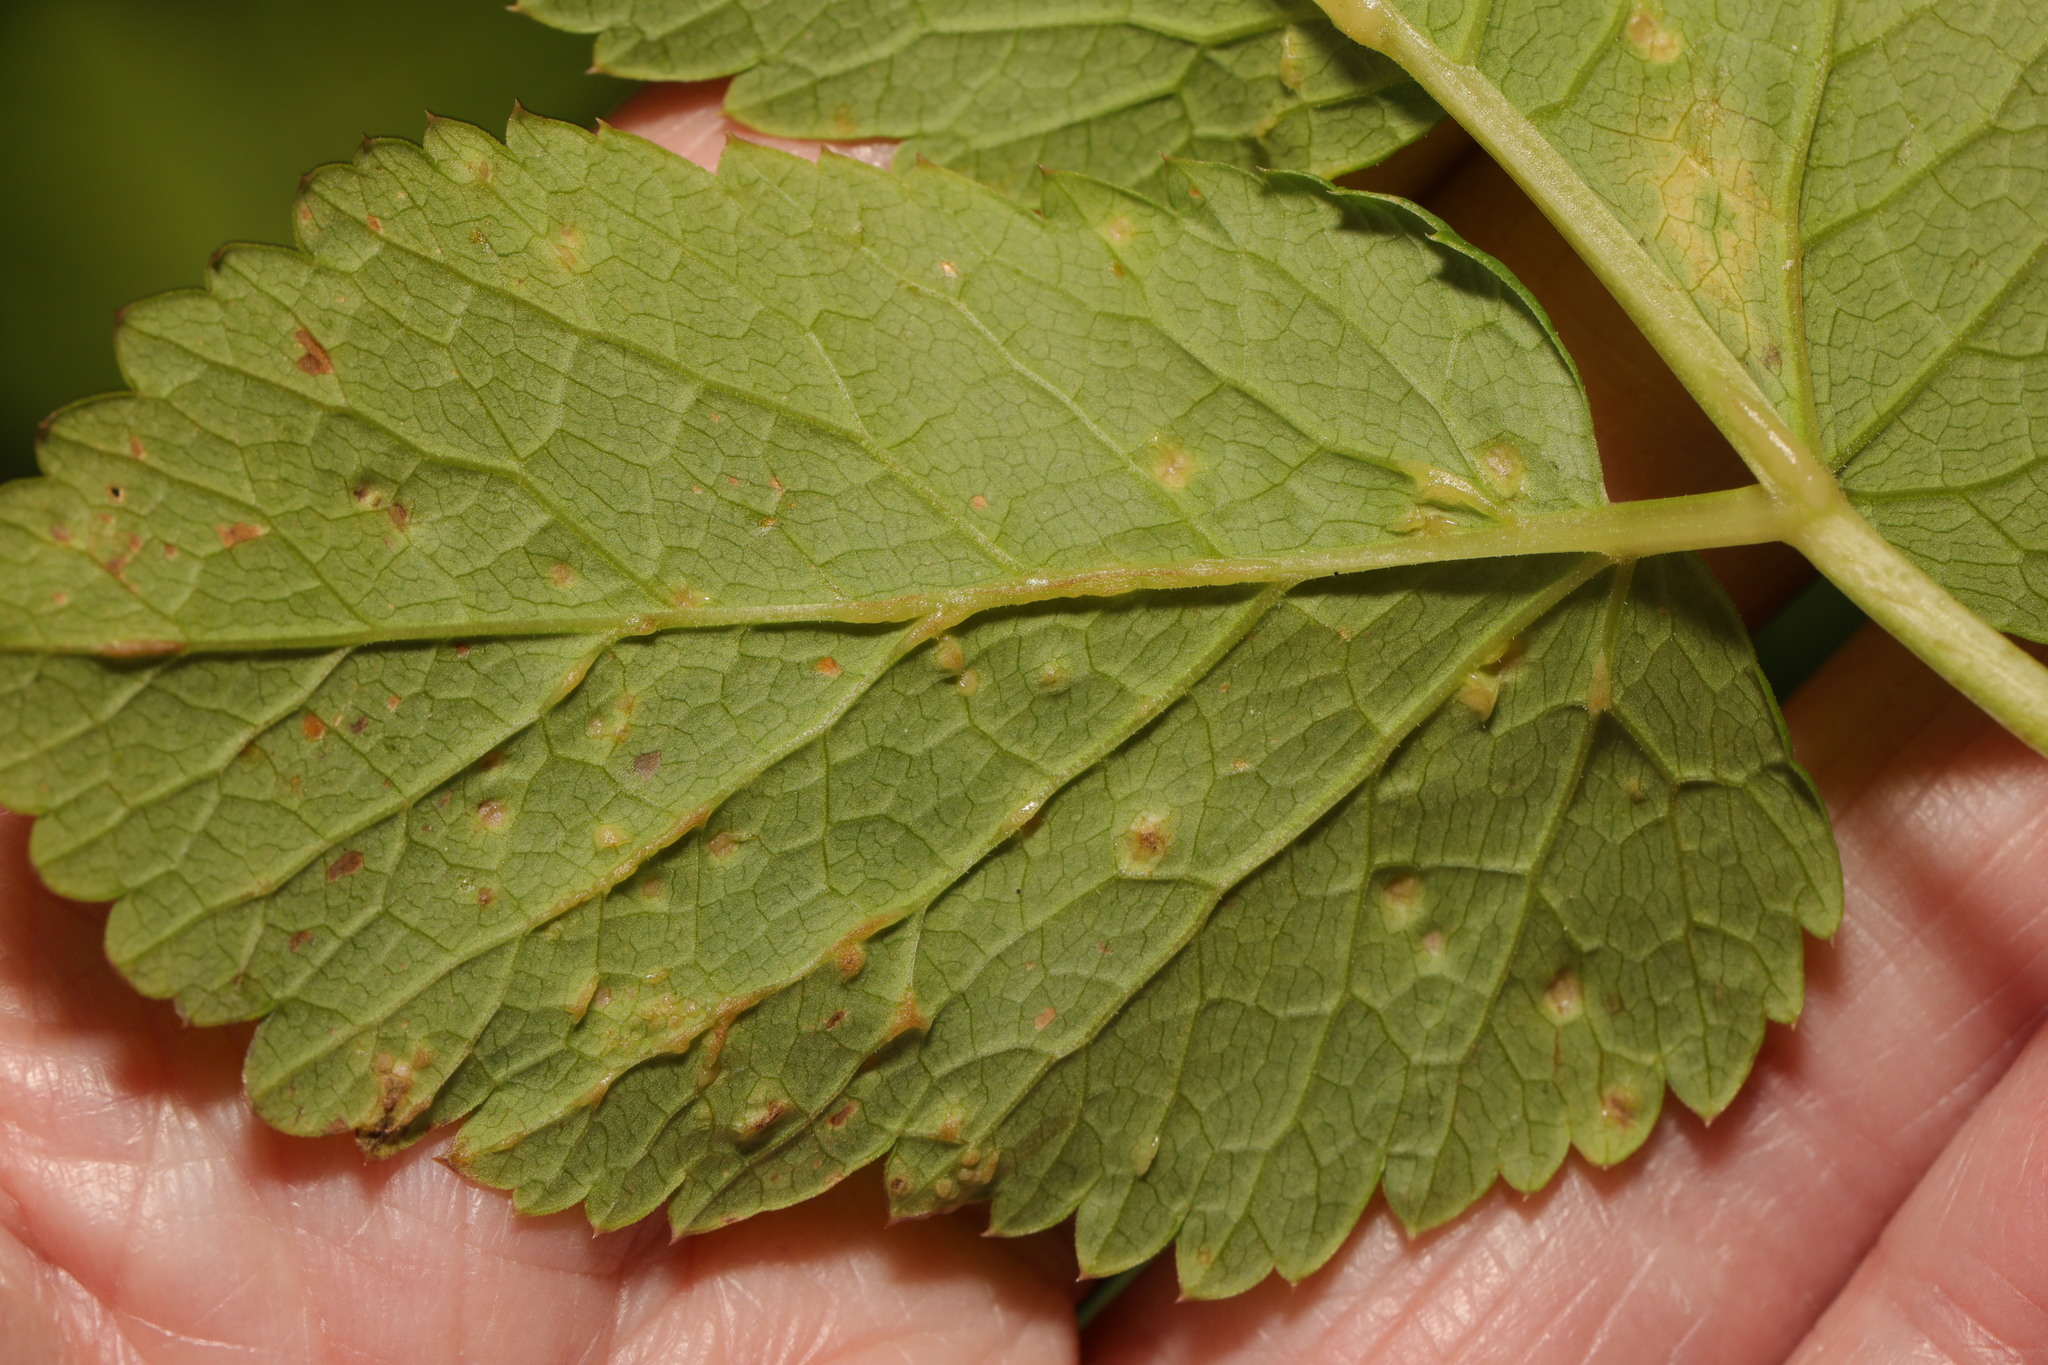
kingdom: Fungi
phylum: Ascomycota
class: Taphrinomycetes
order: Taphrinales
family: Taphrinaceae
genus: Protomyces
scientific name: Protomyces macrosporus
